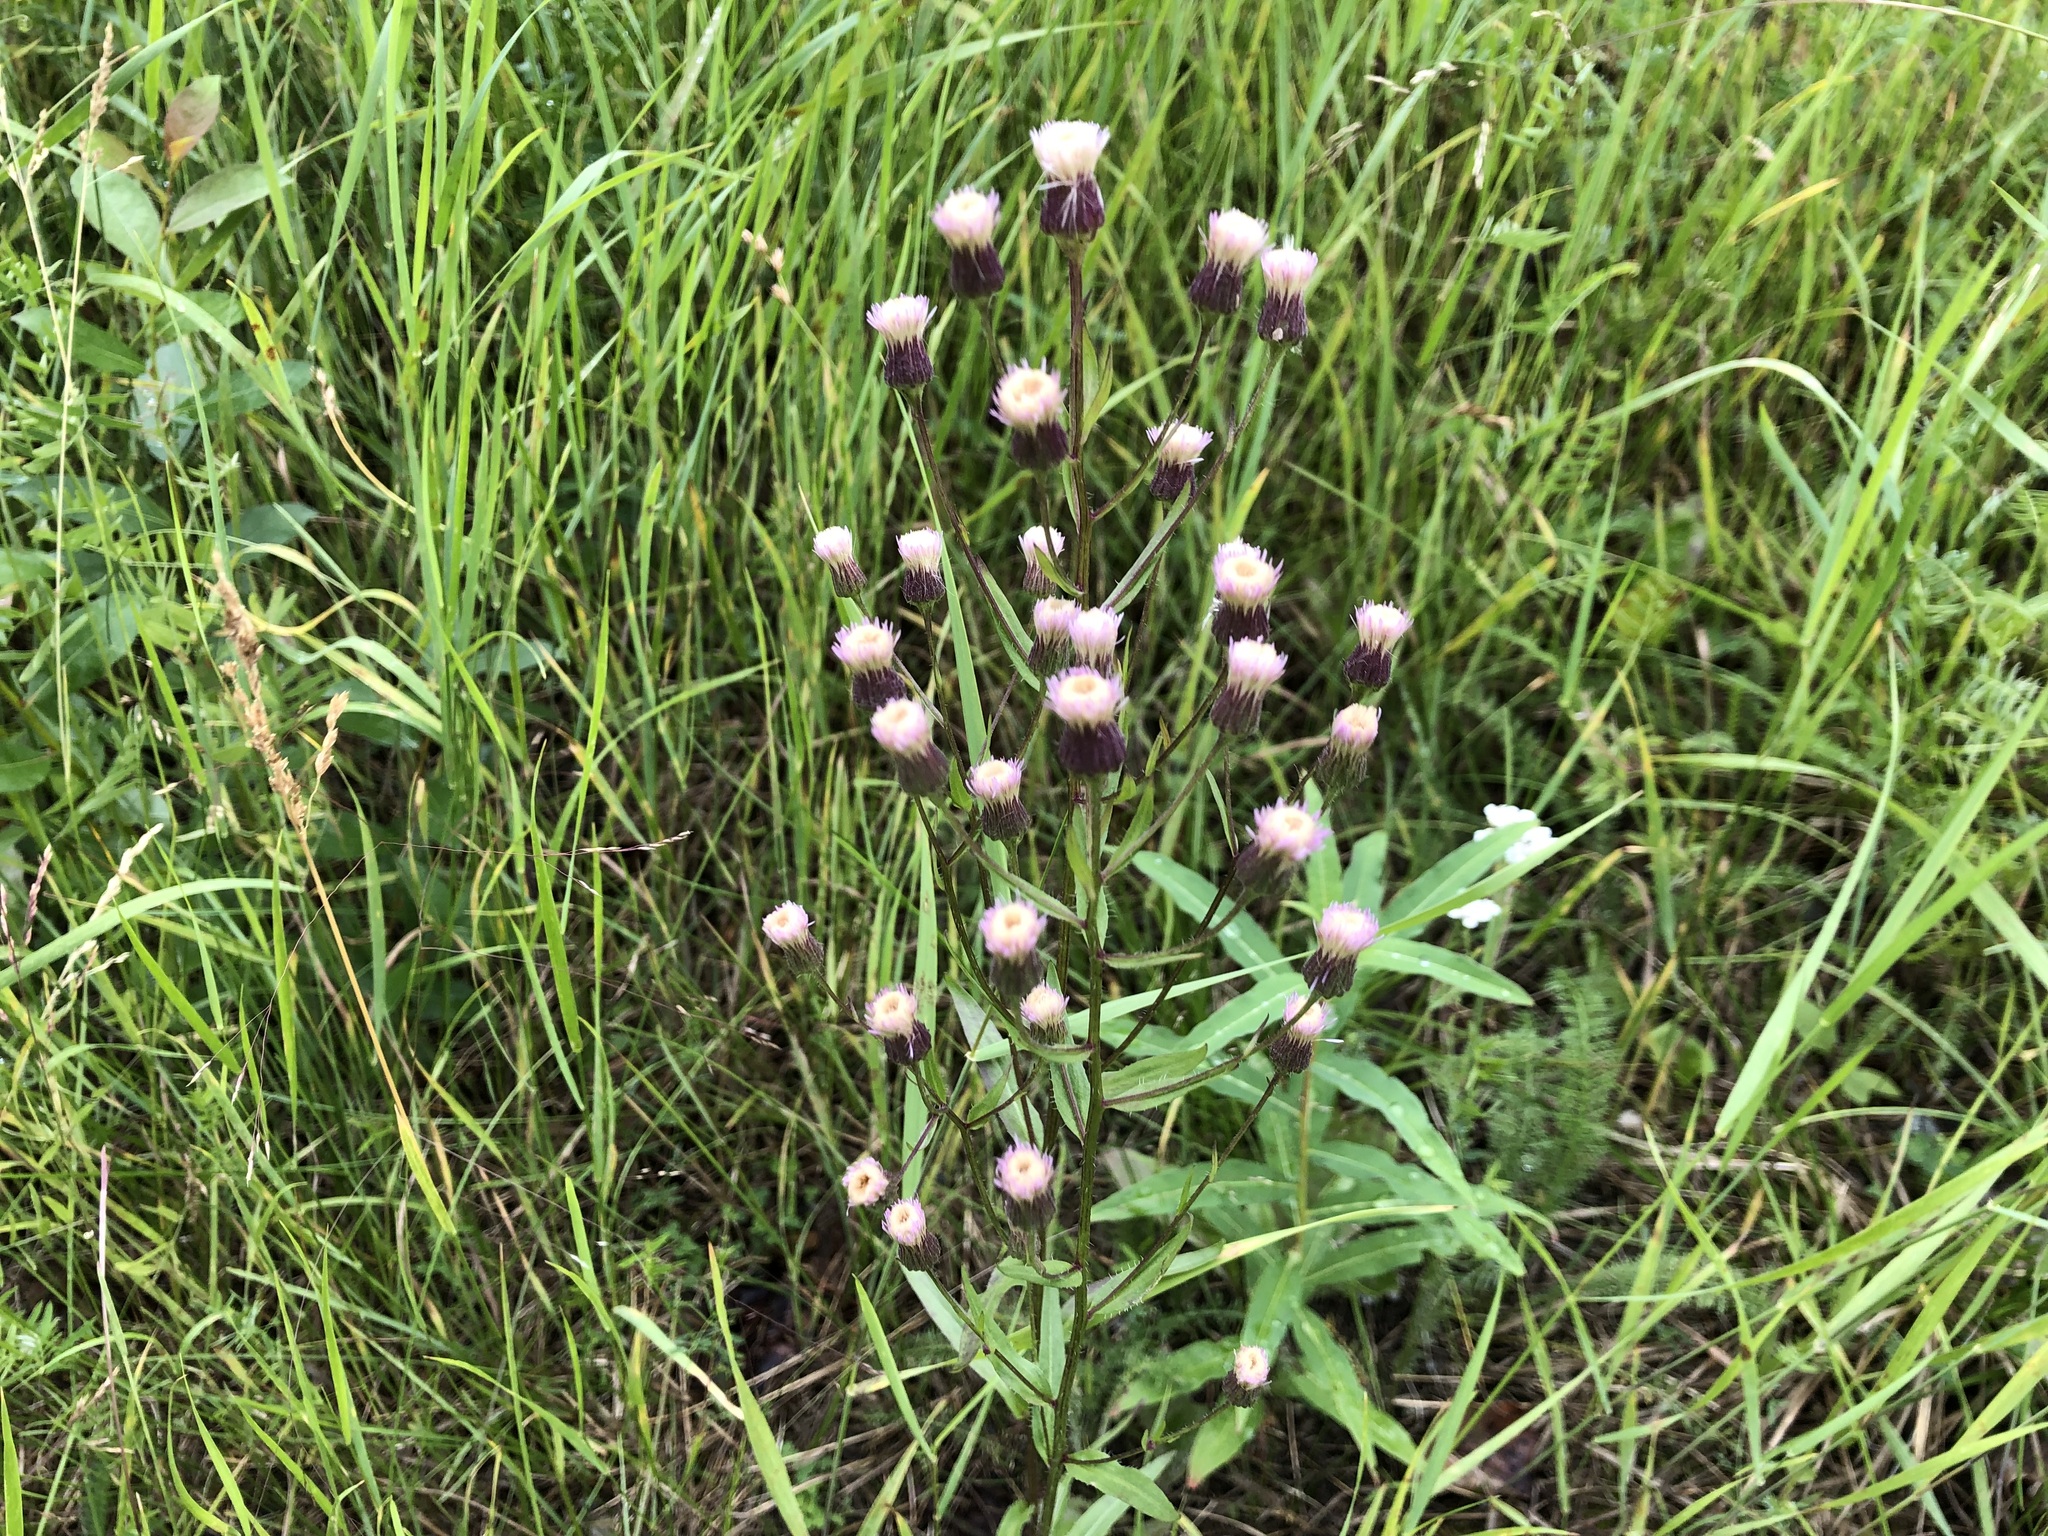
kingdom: Plantae
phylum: Tracheophyta
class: Magnoliopsida
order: Asterales
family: Asteraceae
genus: Erigeron
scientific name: Erigeron acris
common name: Blue fleabane
